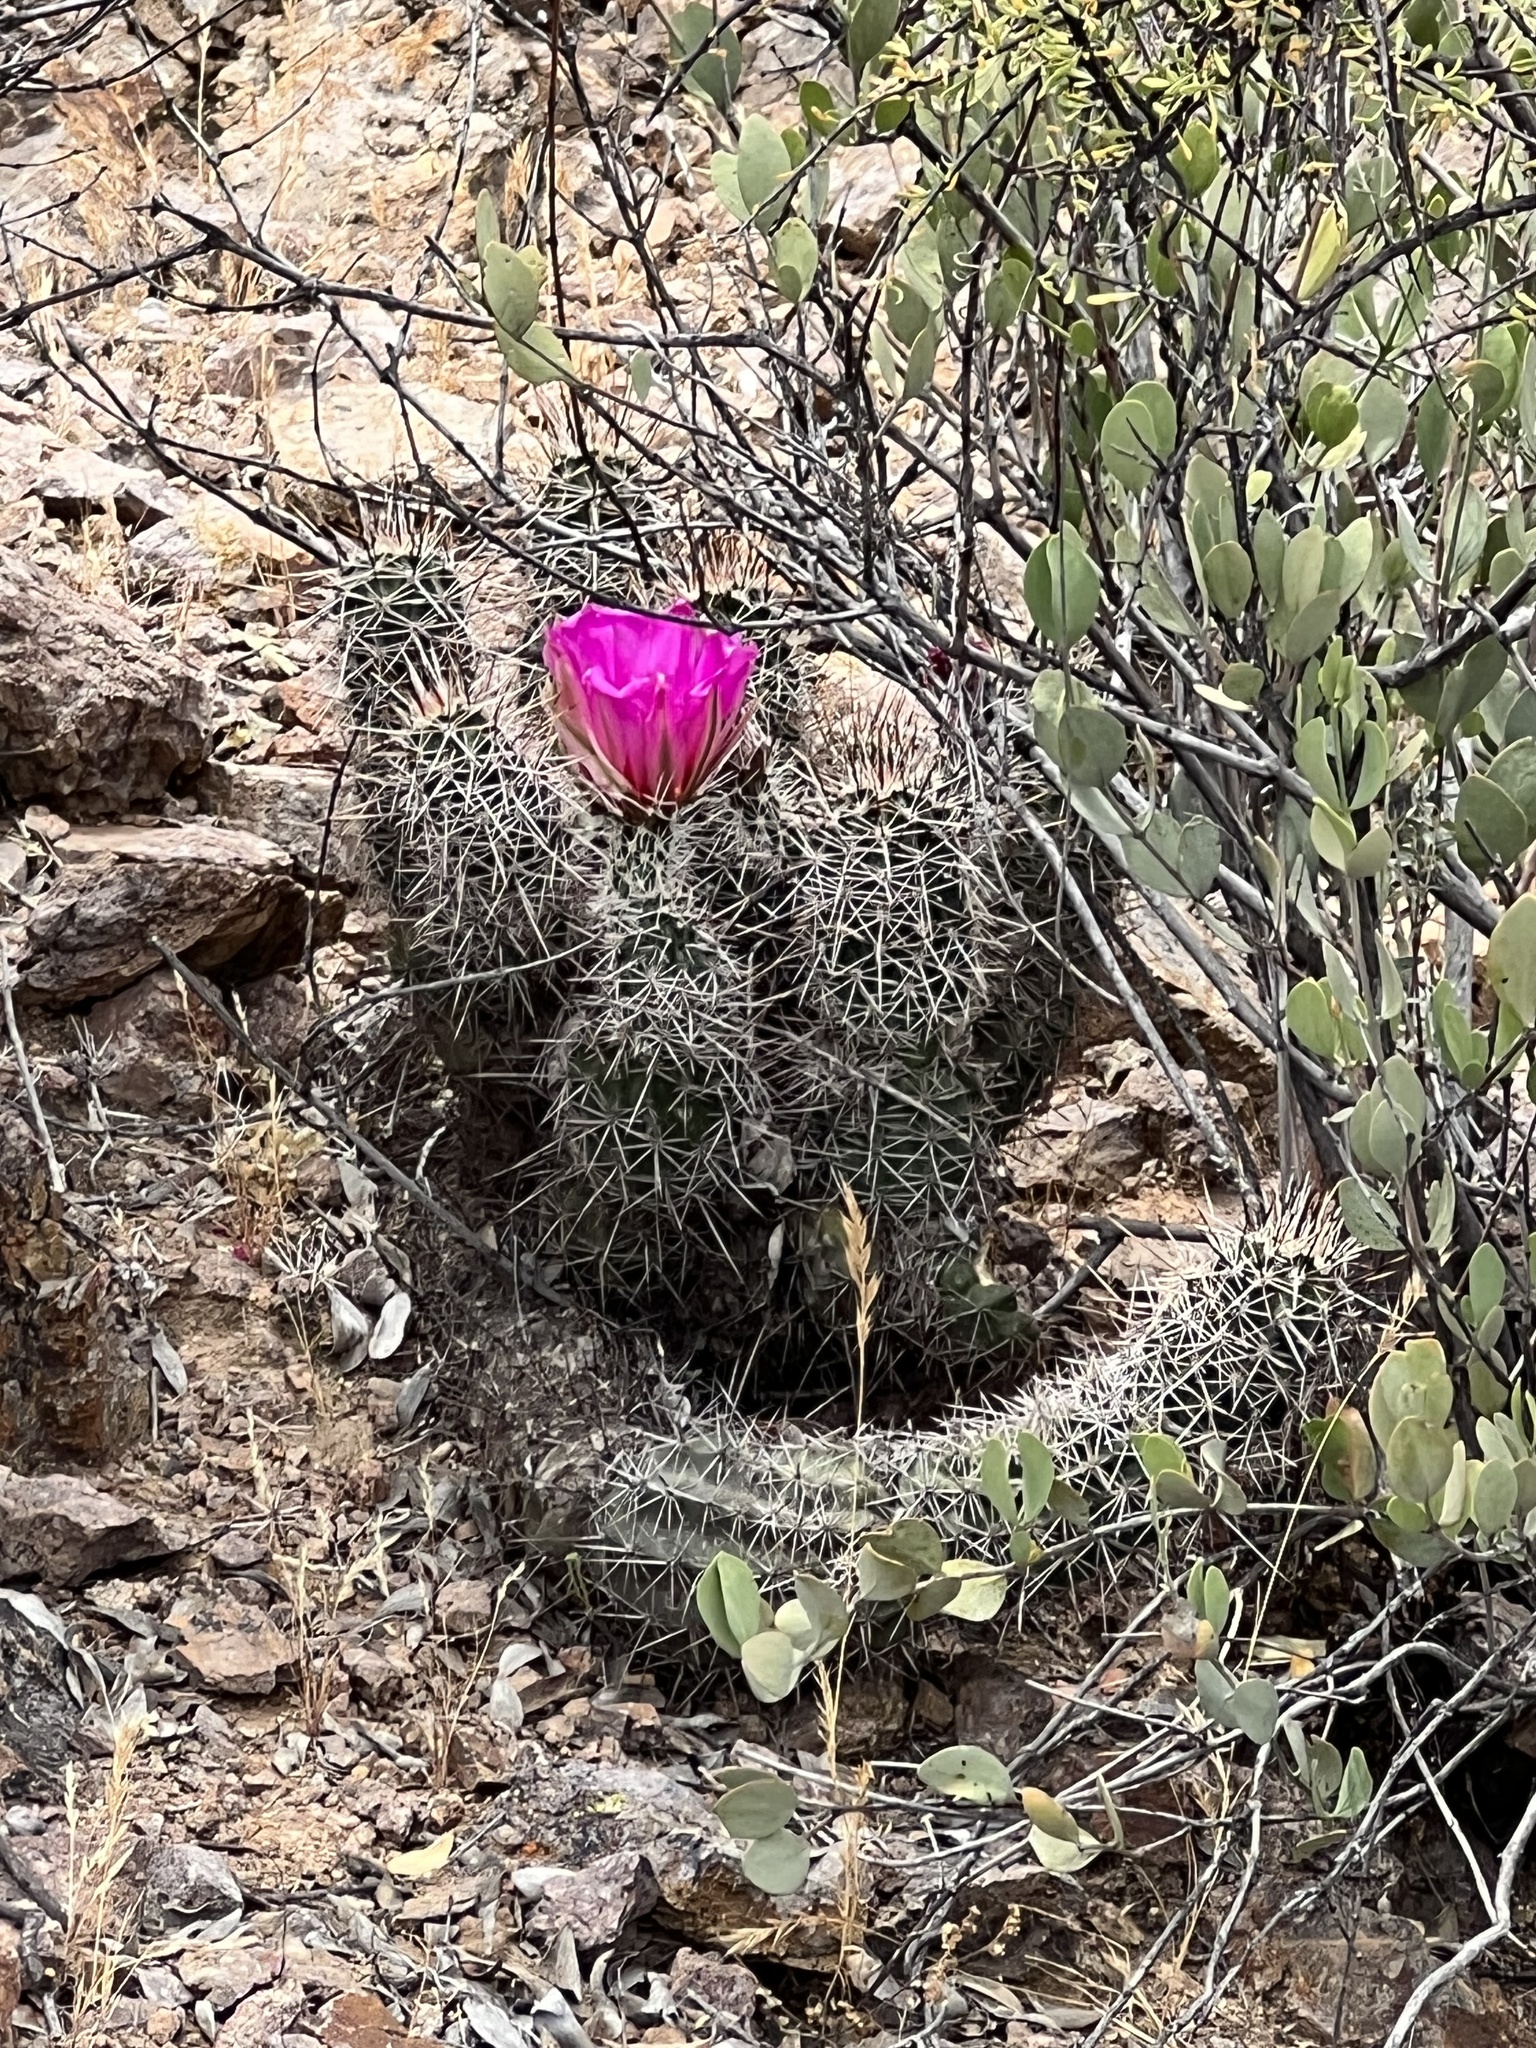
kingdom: Plantae
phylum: Tracheophyta
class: Magnoliopsida
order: Caryophyllales
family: Cactaceae
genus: Echinocereus
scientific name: Echinocereus fasciculatus
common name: Bundle hedgehog
